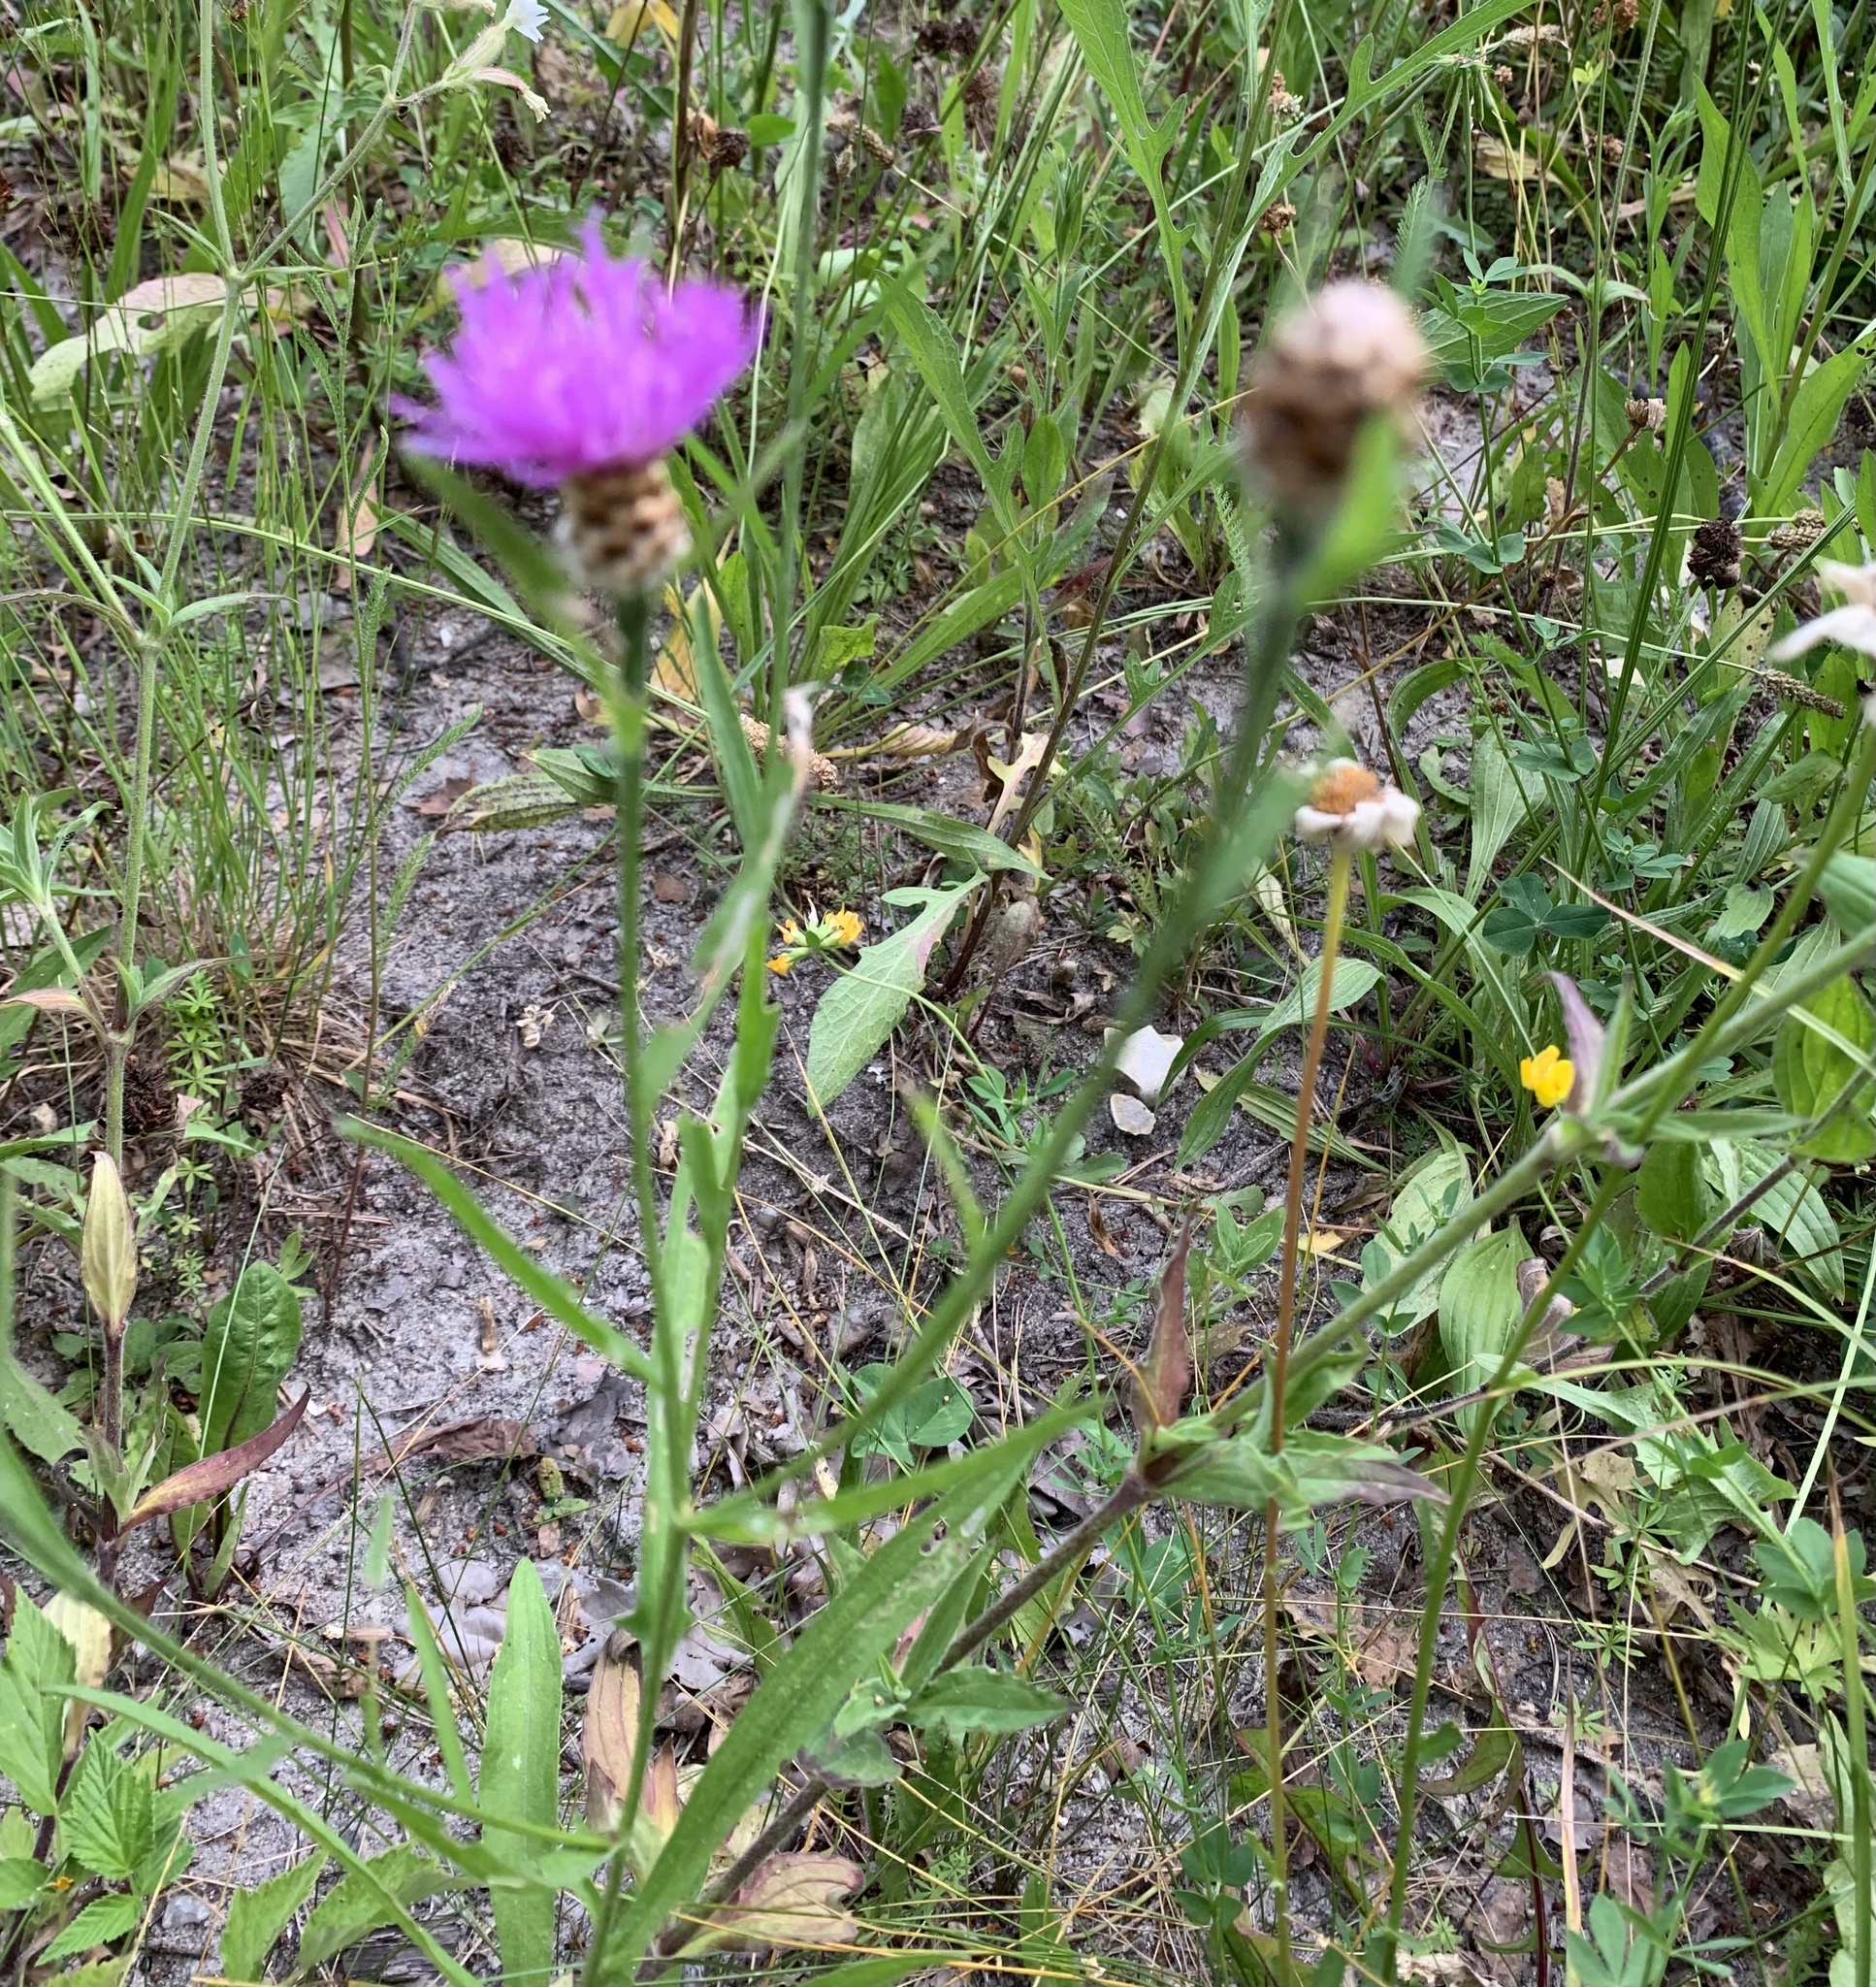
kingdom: Plantae
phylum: Tracheophyta
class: Magnoliopsida
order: Asterales
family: Asteraceae
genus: Centaurea
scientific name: Centaurea jacea
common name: Brown knapweed
